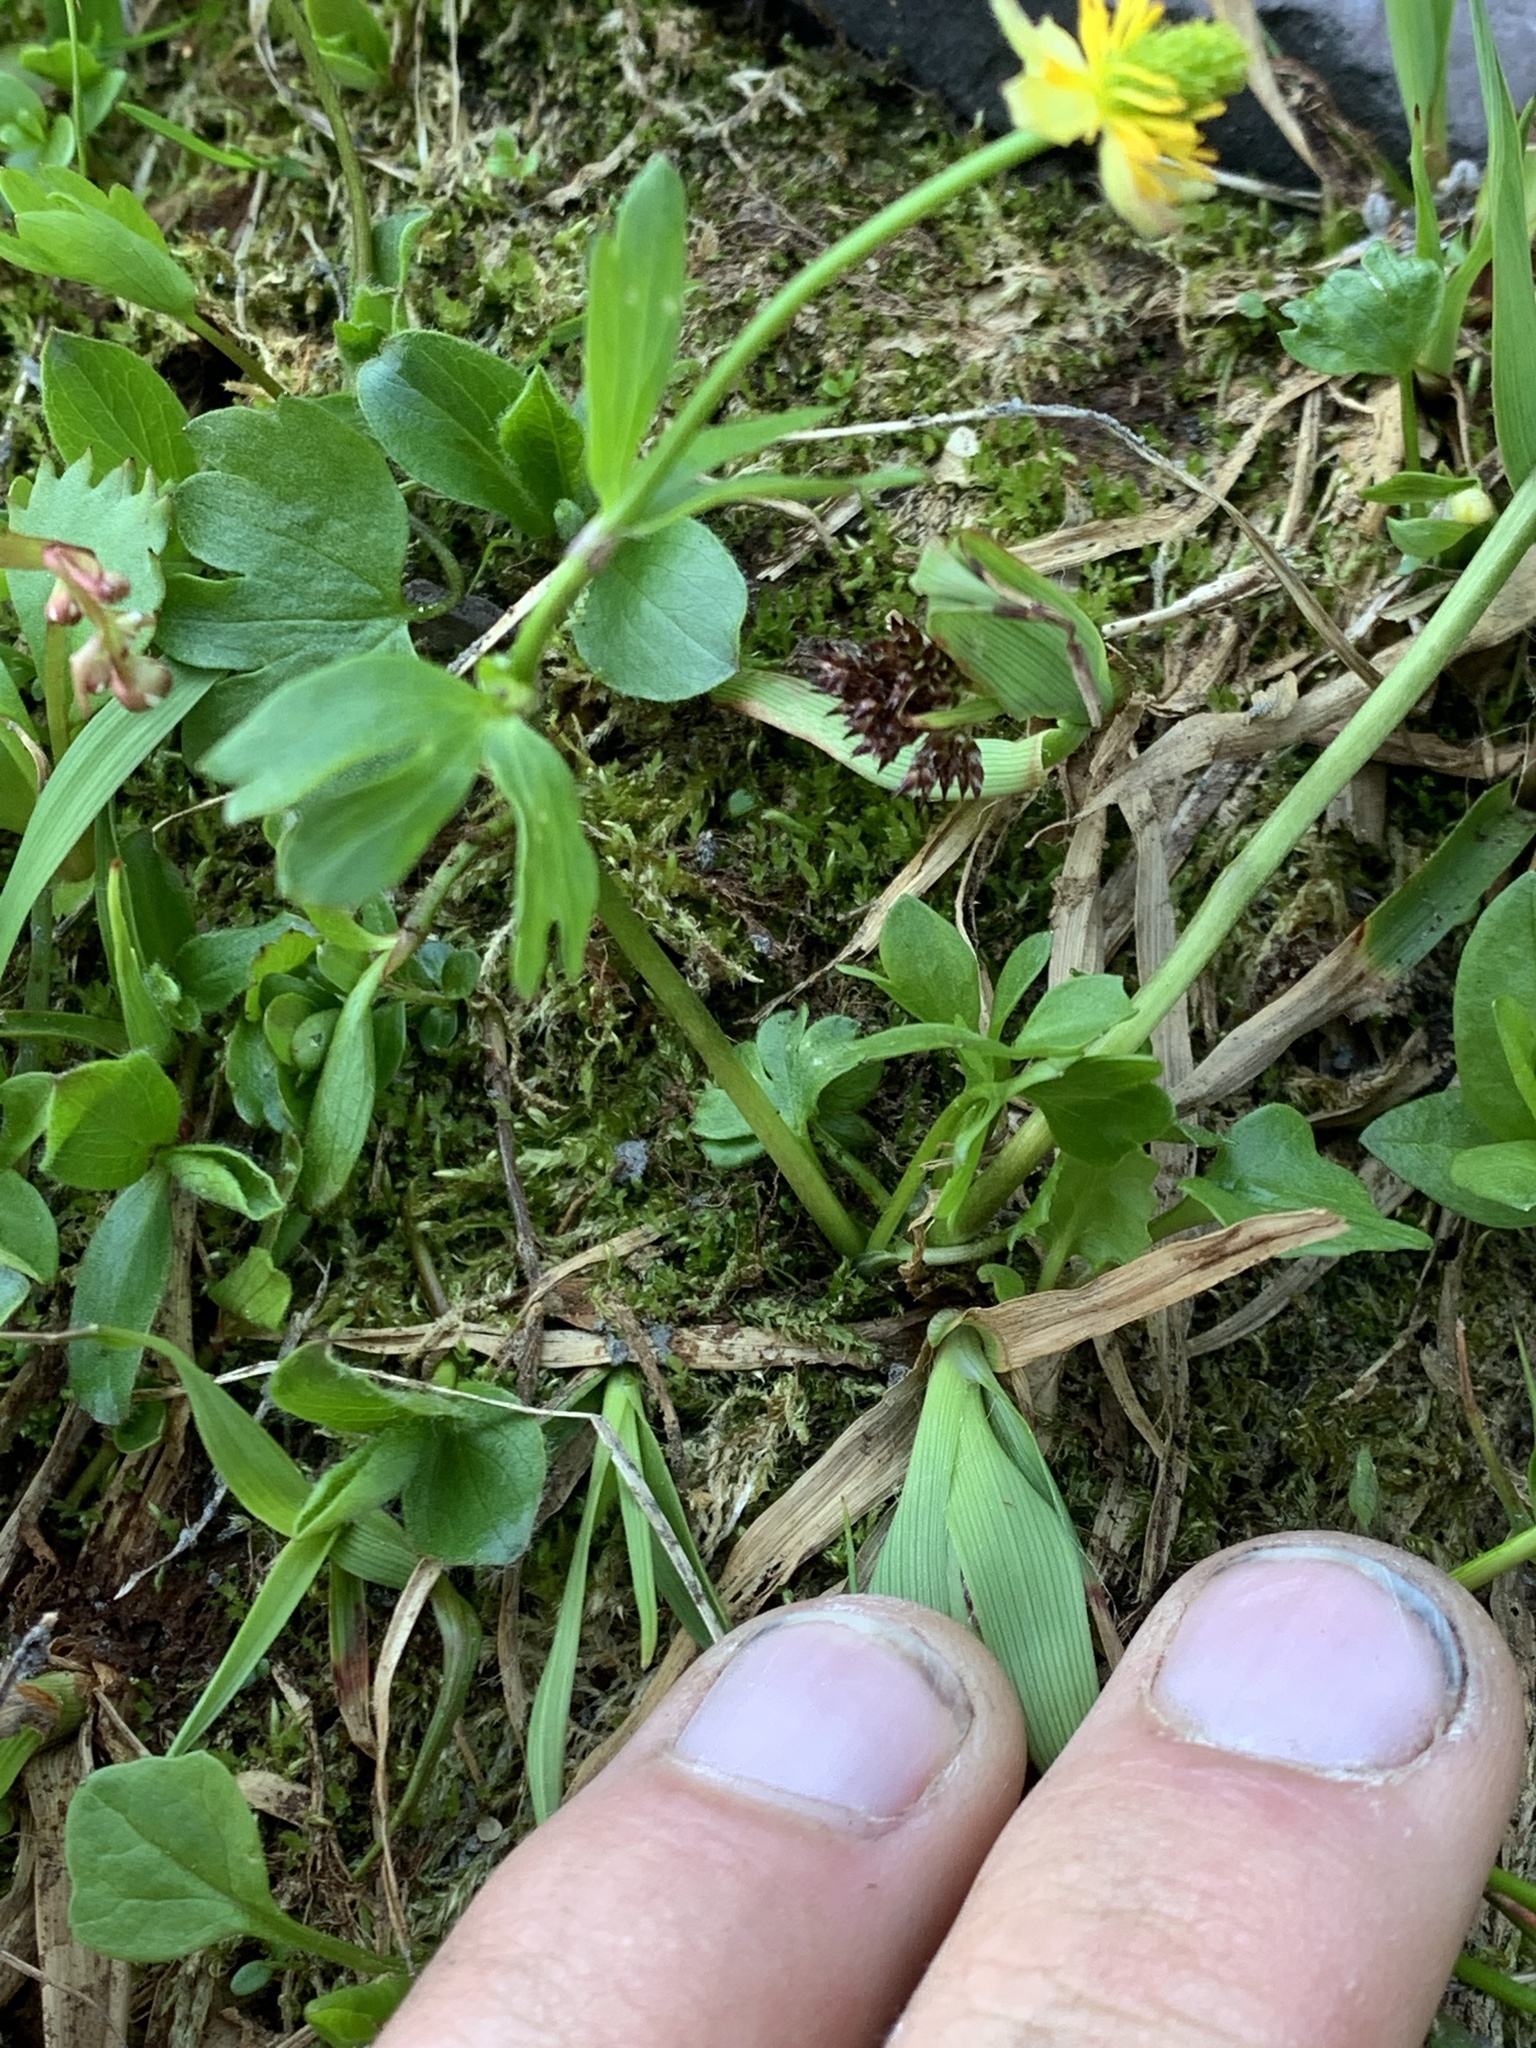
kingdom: Plantae
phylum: Tracheophyta
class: Magnoliopsida
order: Ranunculales
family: Ranunculaceae
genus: Ranunculus
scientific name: Ranunculus eschscholtzii
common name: Eschscholtz's buttercup
